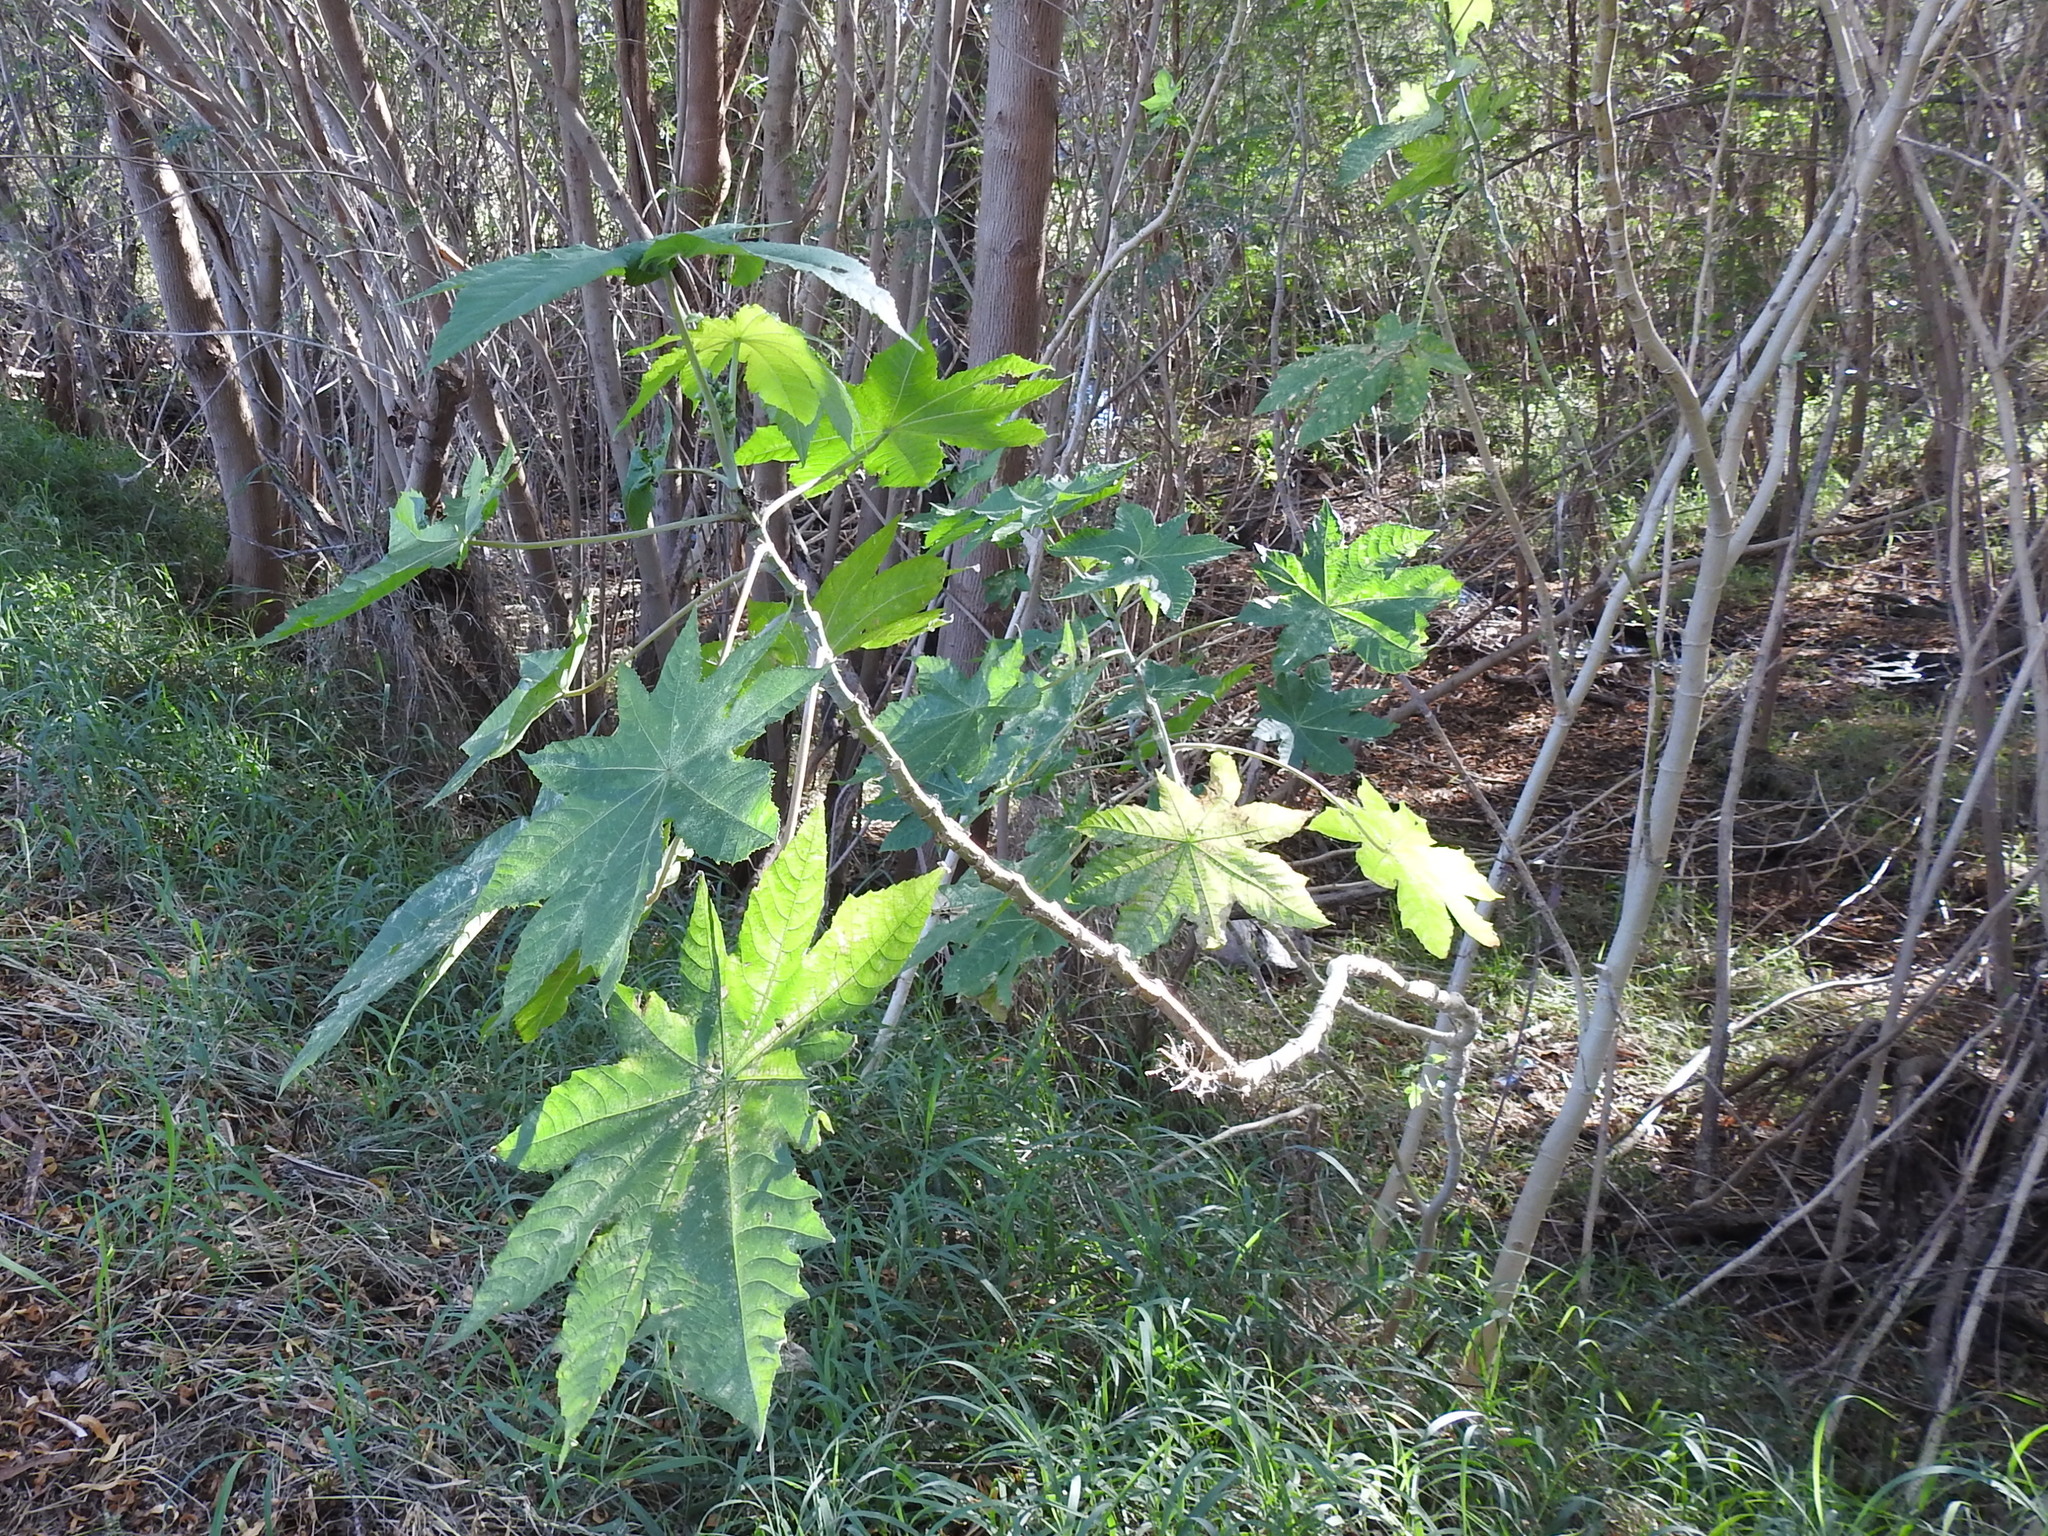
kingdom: Plantae
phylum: Tracheophyta
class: Magnoliopsida
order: Malpighiales
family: Euphorbiaceae
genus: Ricinus
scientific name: Ricinus communis
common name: Castor-oil-plant
